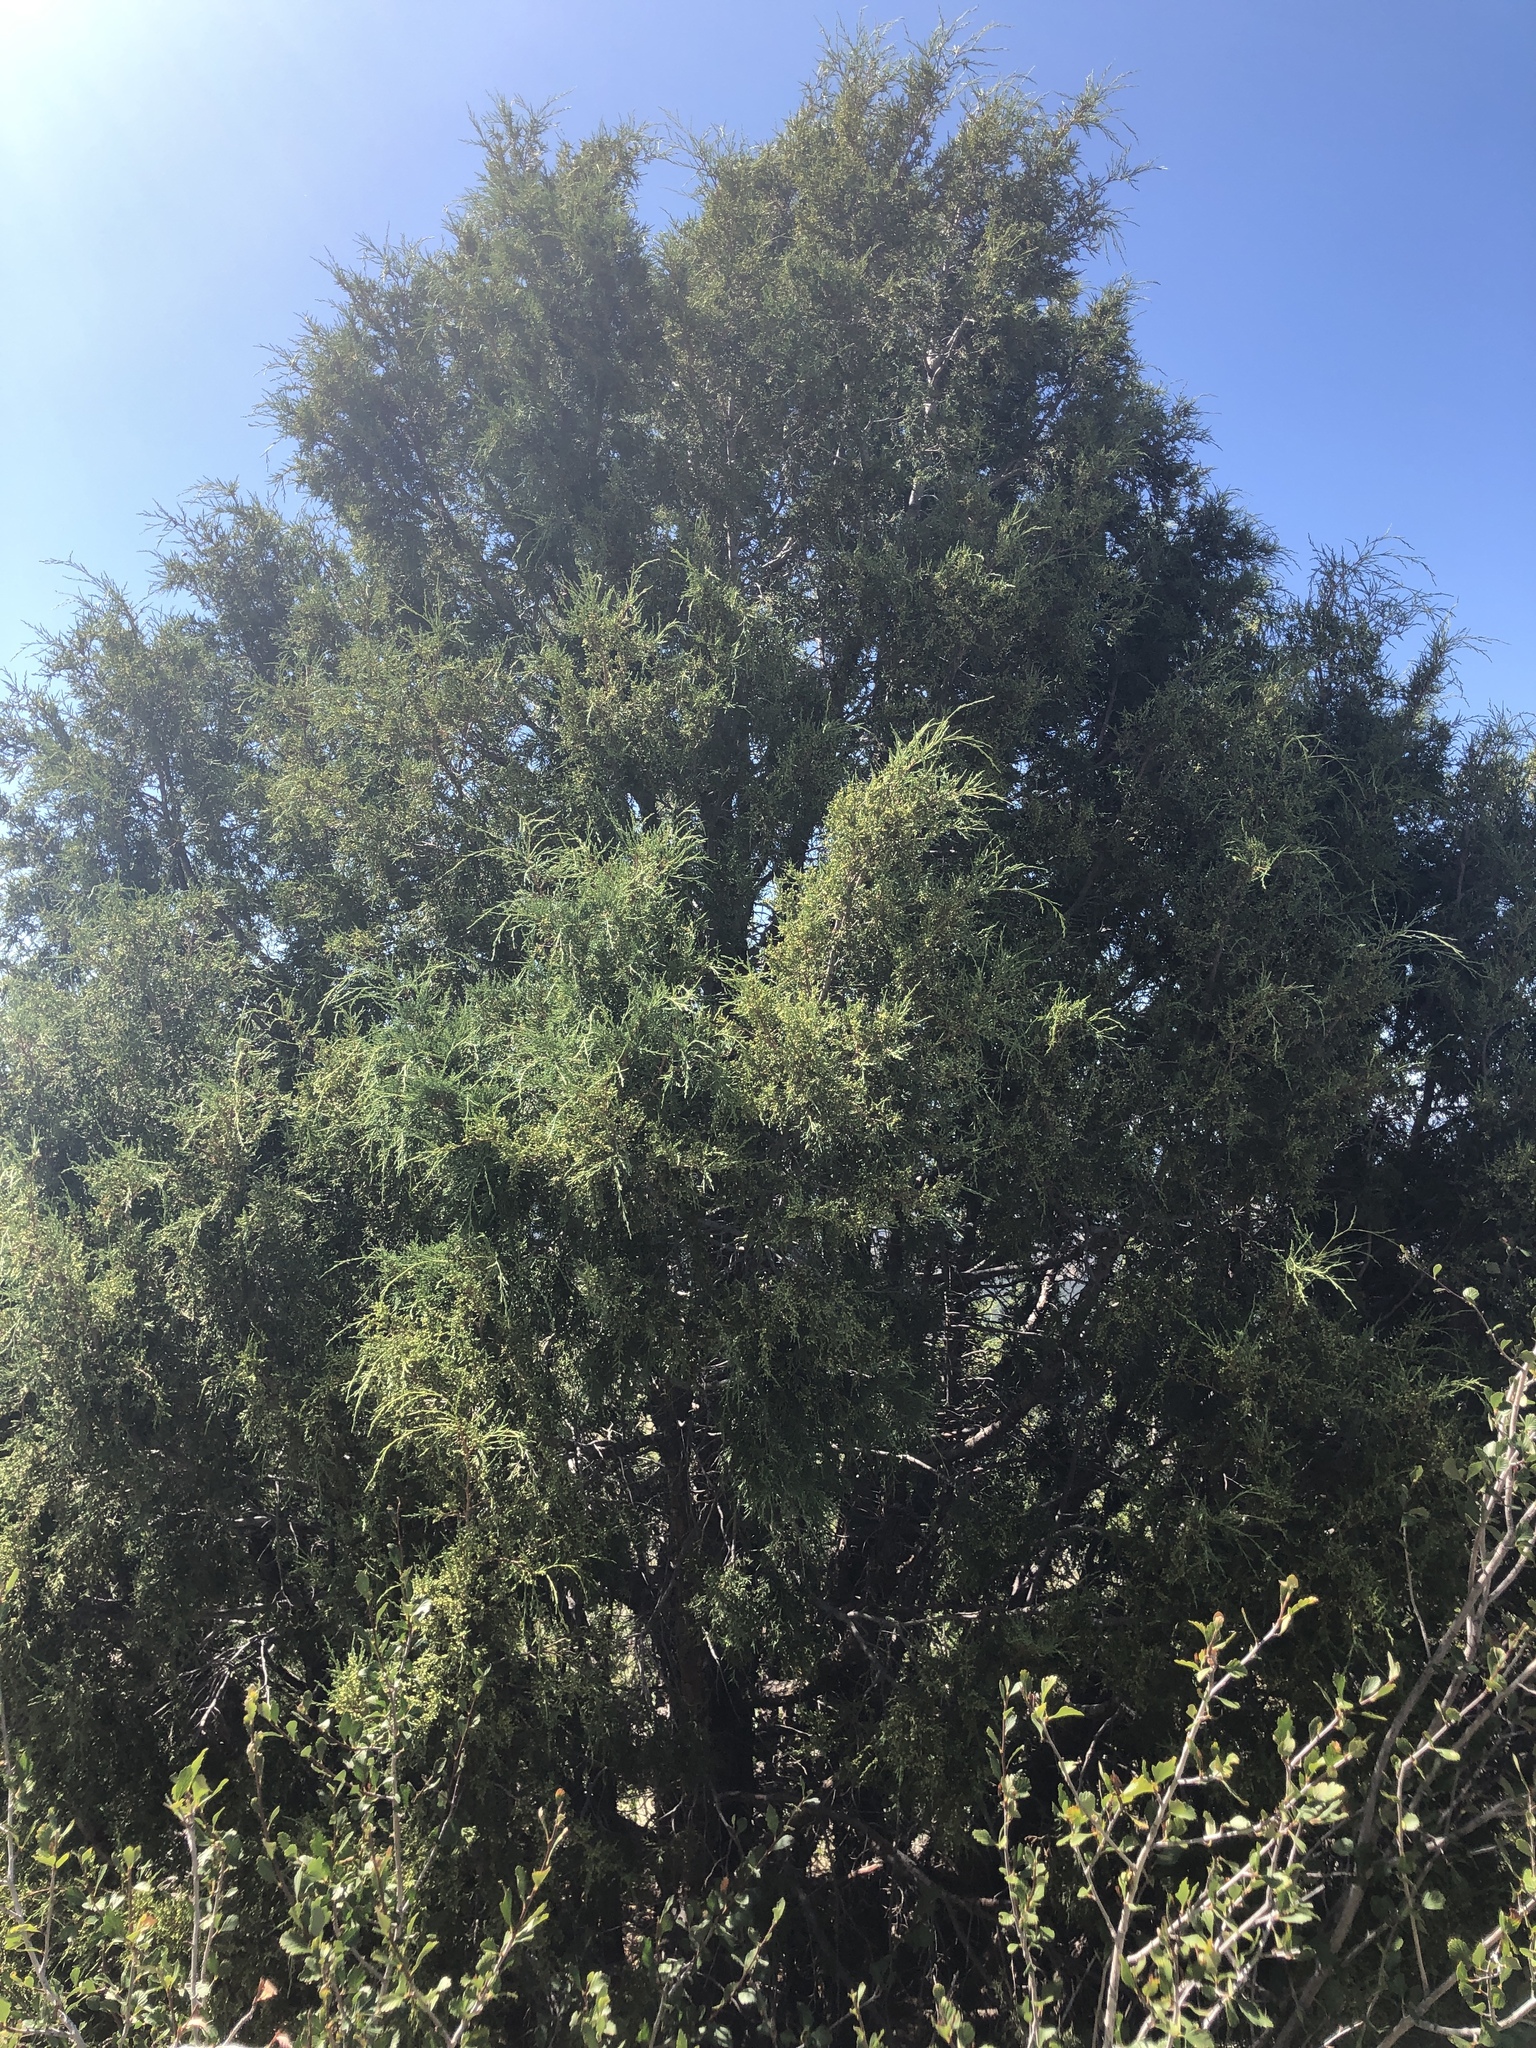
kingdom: Plantae
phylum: Tracheophyta
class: Pinopsida
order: Pinales
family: Cupressaceae
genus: Juniperus
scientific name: Juniperus scopulorum
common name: Rocky mountain juniper
